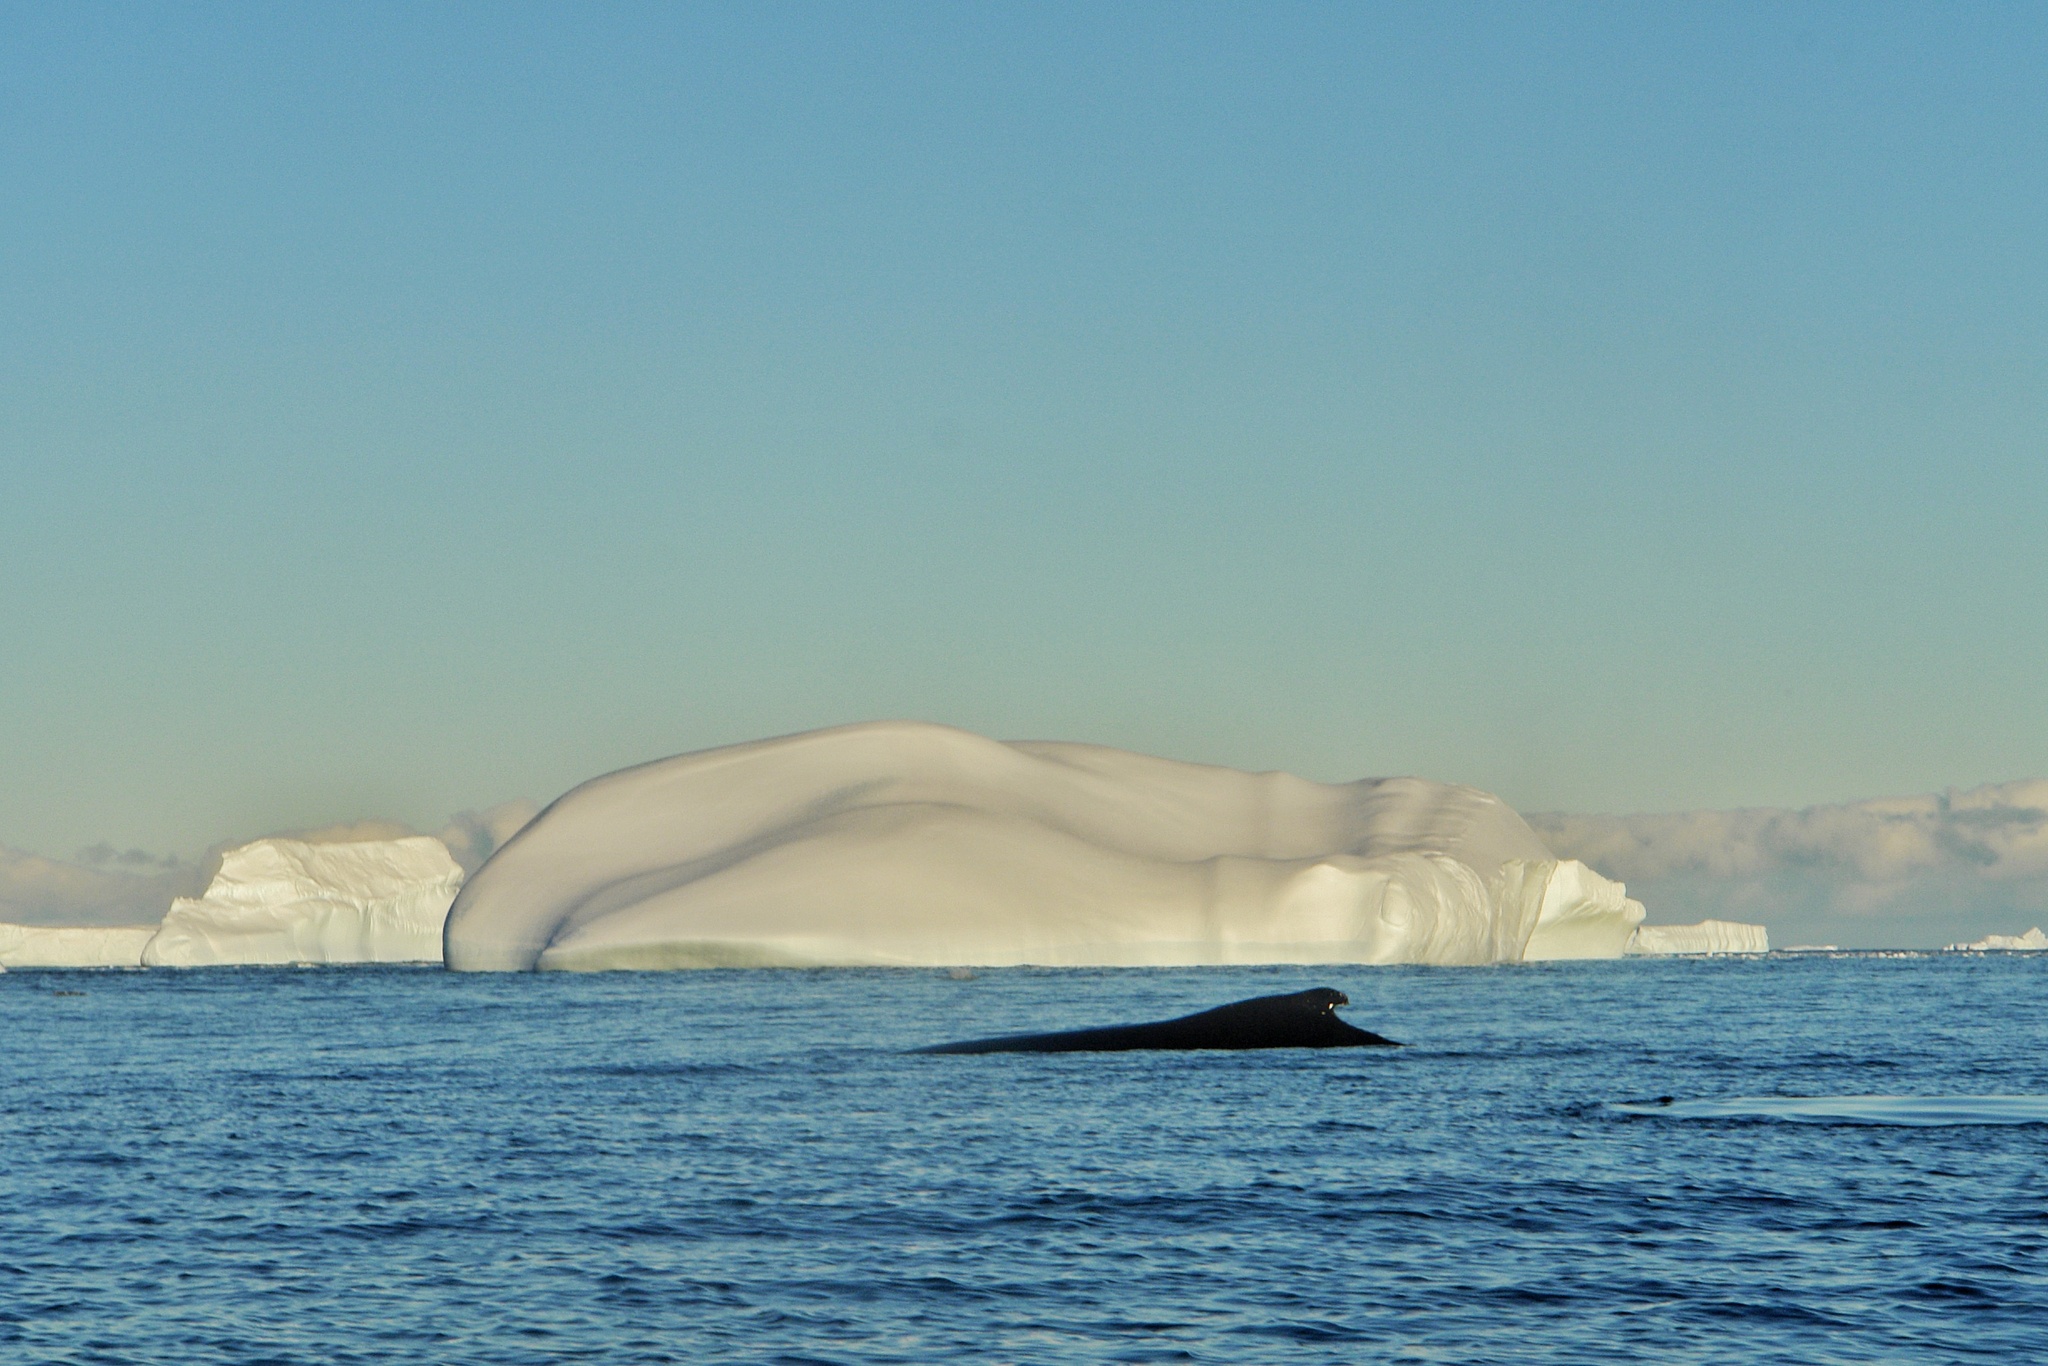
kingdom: Animalia
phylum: Chordata
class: Mammalia
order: Cetacea
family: Balaenopteridae
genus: Megaptera
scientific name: Megaptera novaeangliae
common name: Humpback whale
